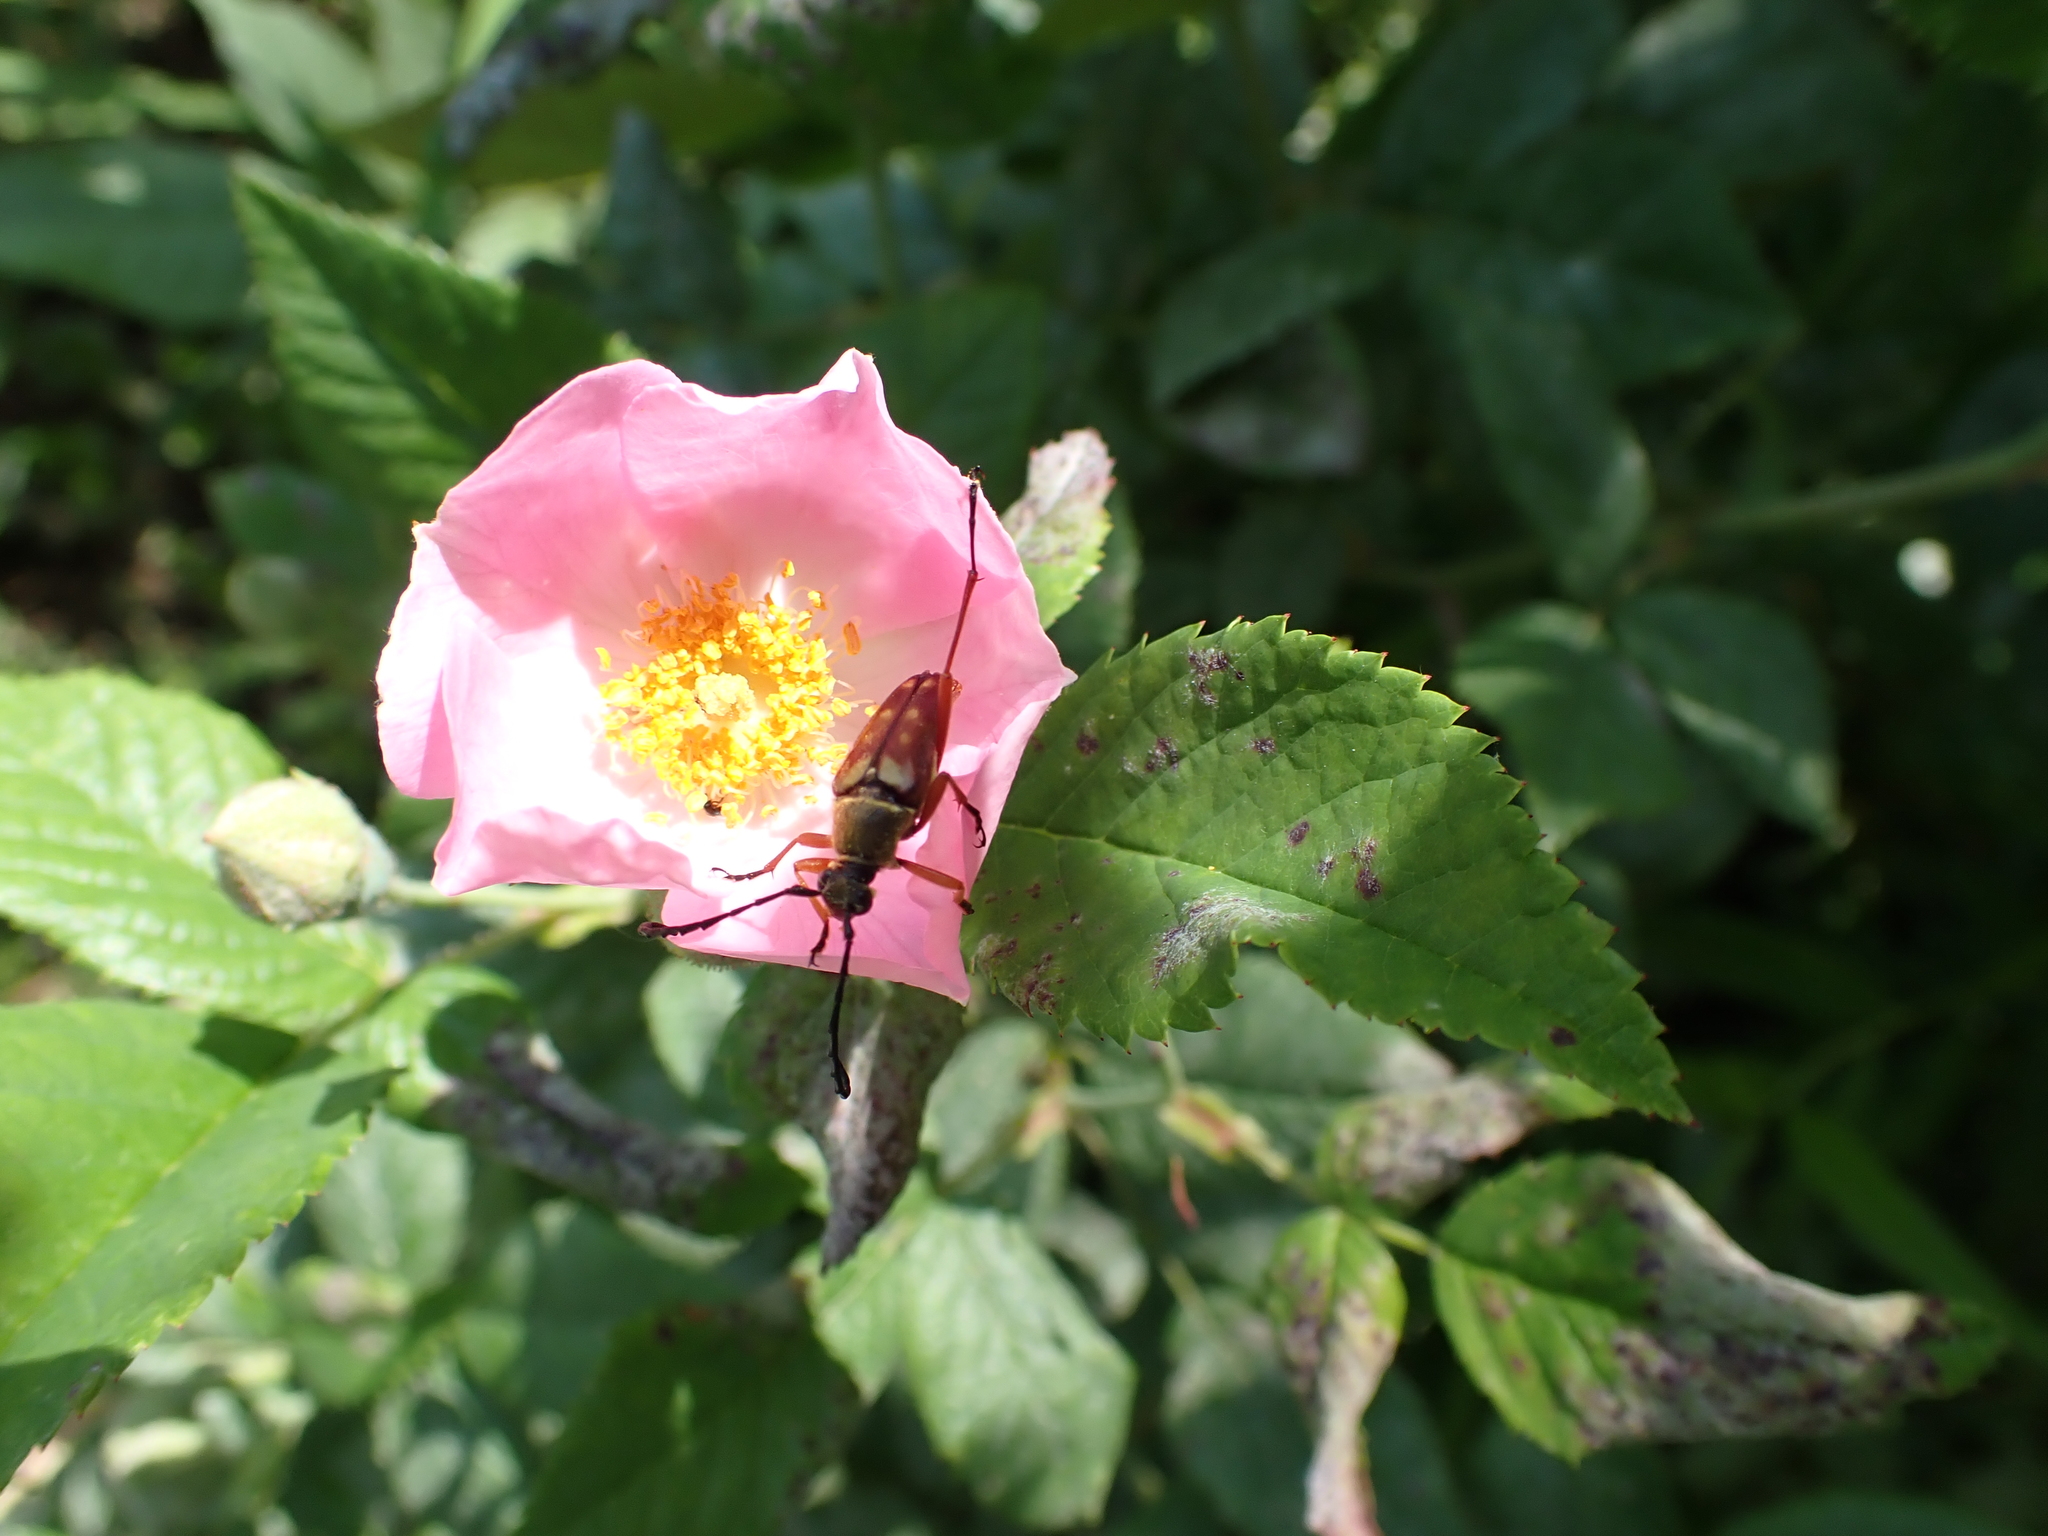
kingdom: Animalia
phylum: Arthropoda
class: Insecta
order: Coleoptera
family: Cerambycidae
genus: Typocerus
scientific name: Typocerus velutinus
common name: Banded longhorn beetle
